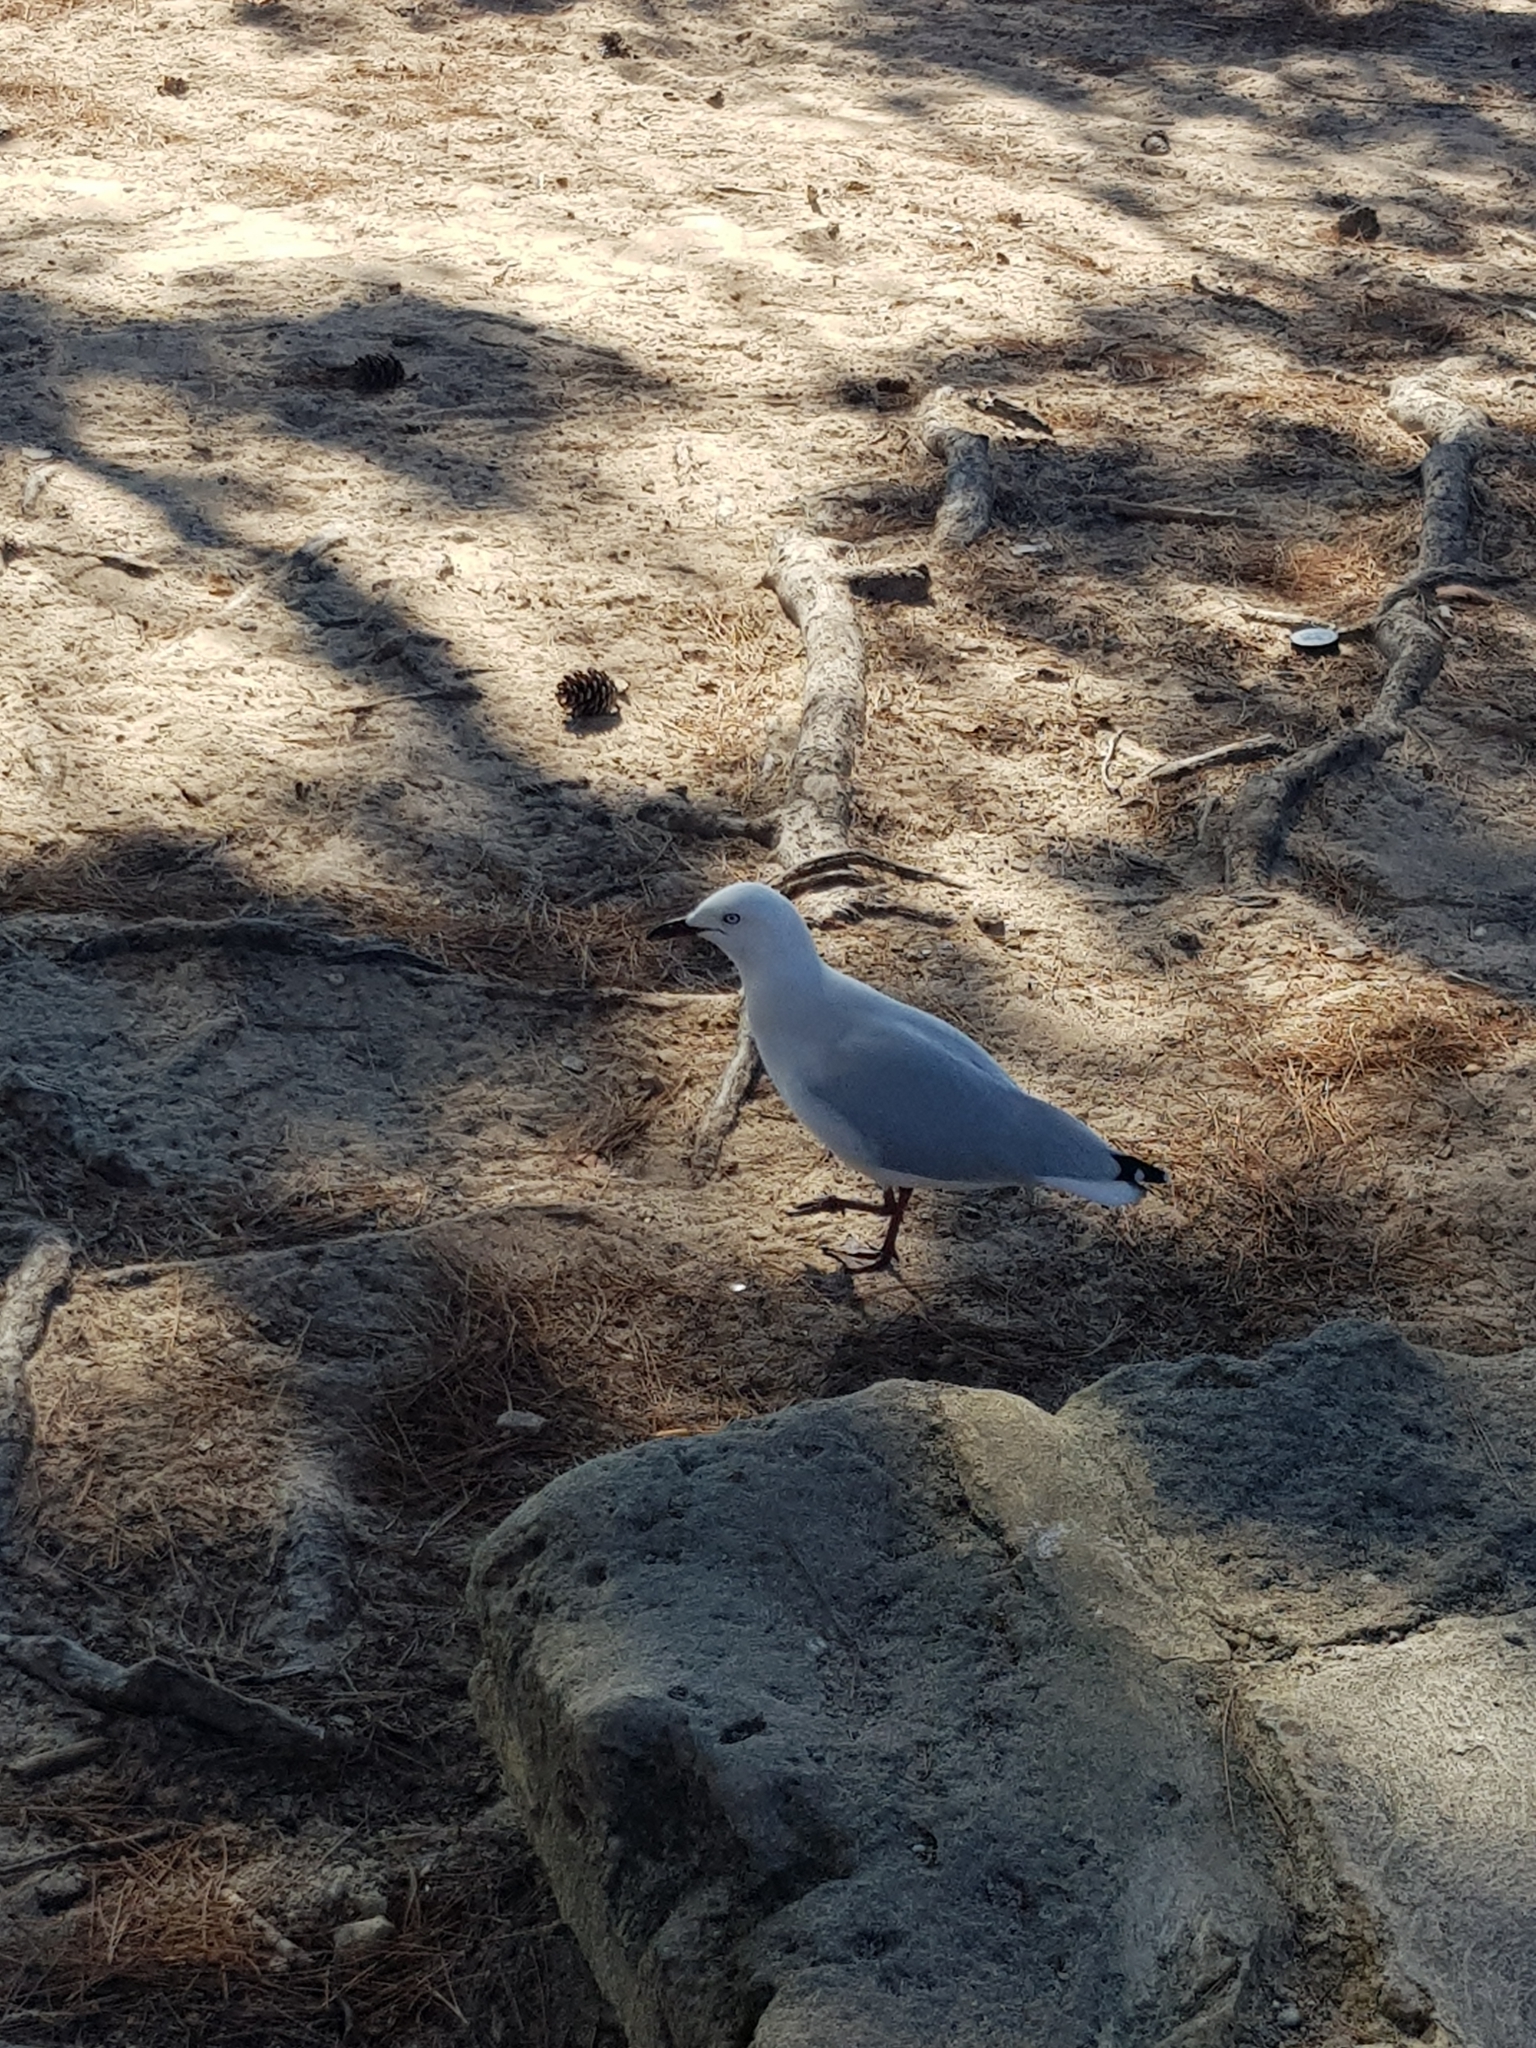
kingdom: Animalia
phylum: Chordata
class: Aves
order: Charadriiformes
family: Laridae
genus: Chroicocephalus
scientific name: Chroicocephalus novaehollandiae
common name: Silver gull
